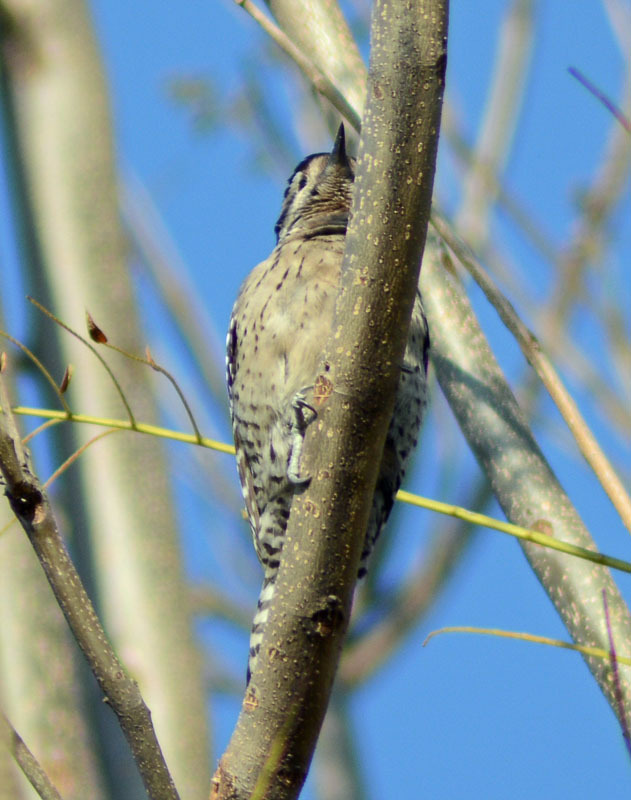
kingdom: Animalia
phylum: Chordata
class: Aves
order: Piciformes
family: Picidae
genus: Dryobates
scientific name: Dryobates scalaris
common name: Ladder-backed woodpecker
